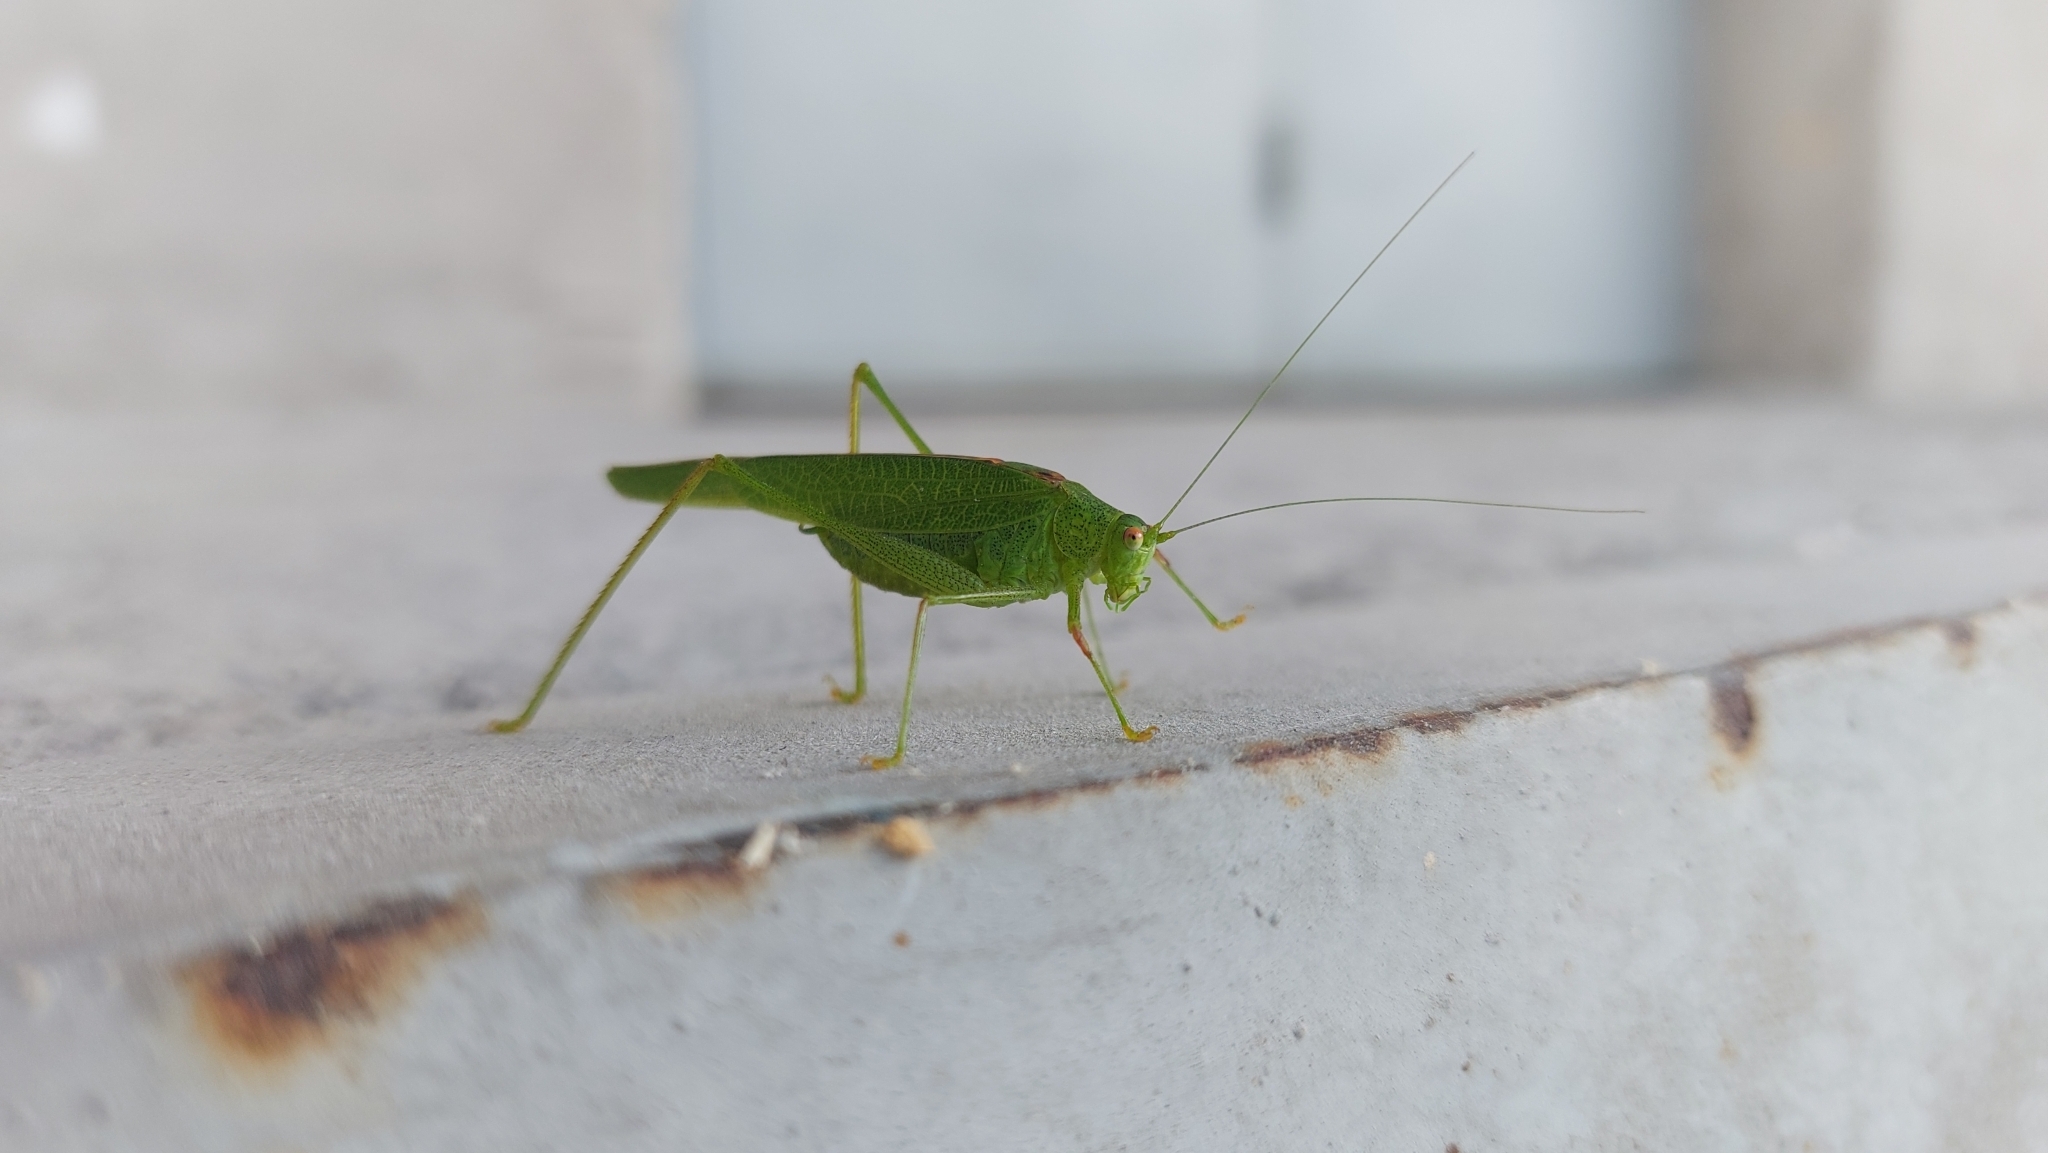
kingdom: Animalia
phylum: Arthropoda
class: Insecta
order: Orthoptera
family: Tettigoniidae
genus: Phaneroptera
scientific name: Phaneroptera nana
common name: Southern sickle bush-cricket
